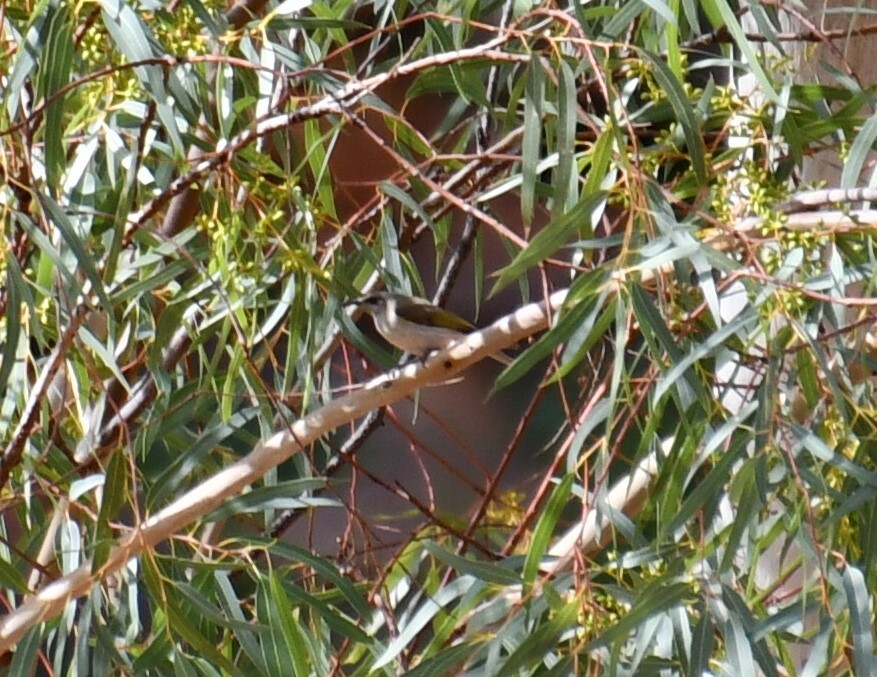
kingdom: Animalia
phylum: Chordata
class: Aves
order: Passeriformes
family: Meliphagidae
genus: Lichmera
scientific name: Lichmera indistincta
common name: Brown honeyeater
